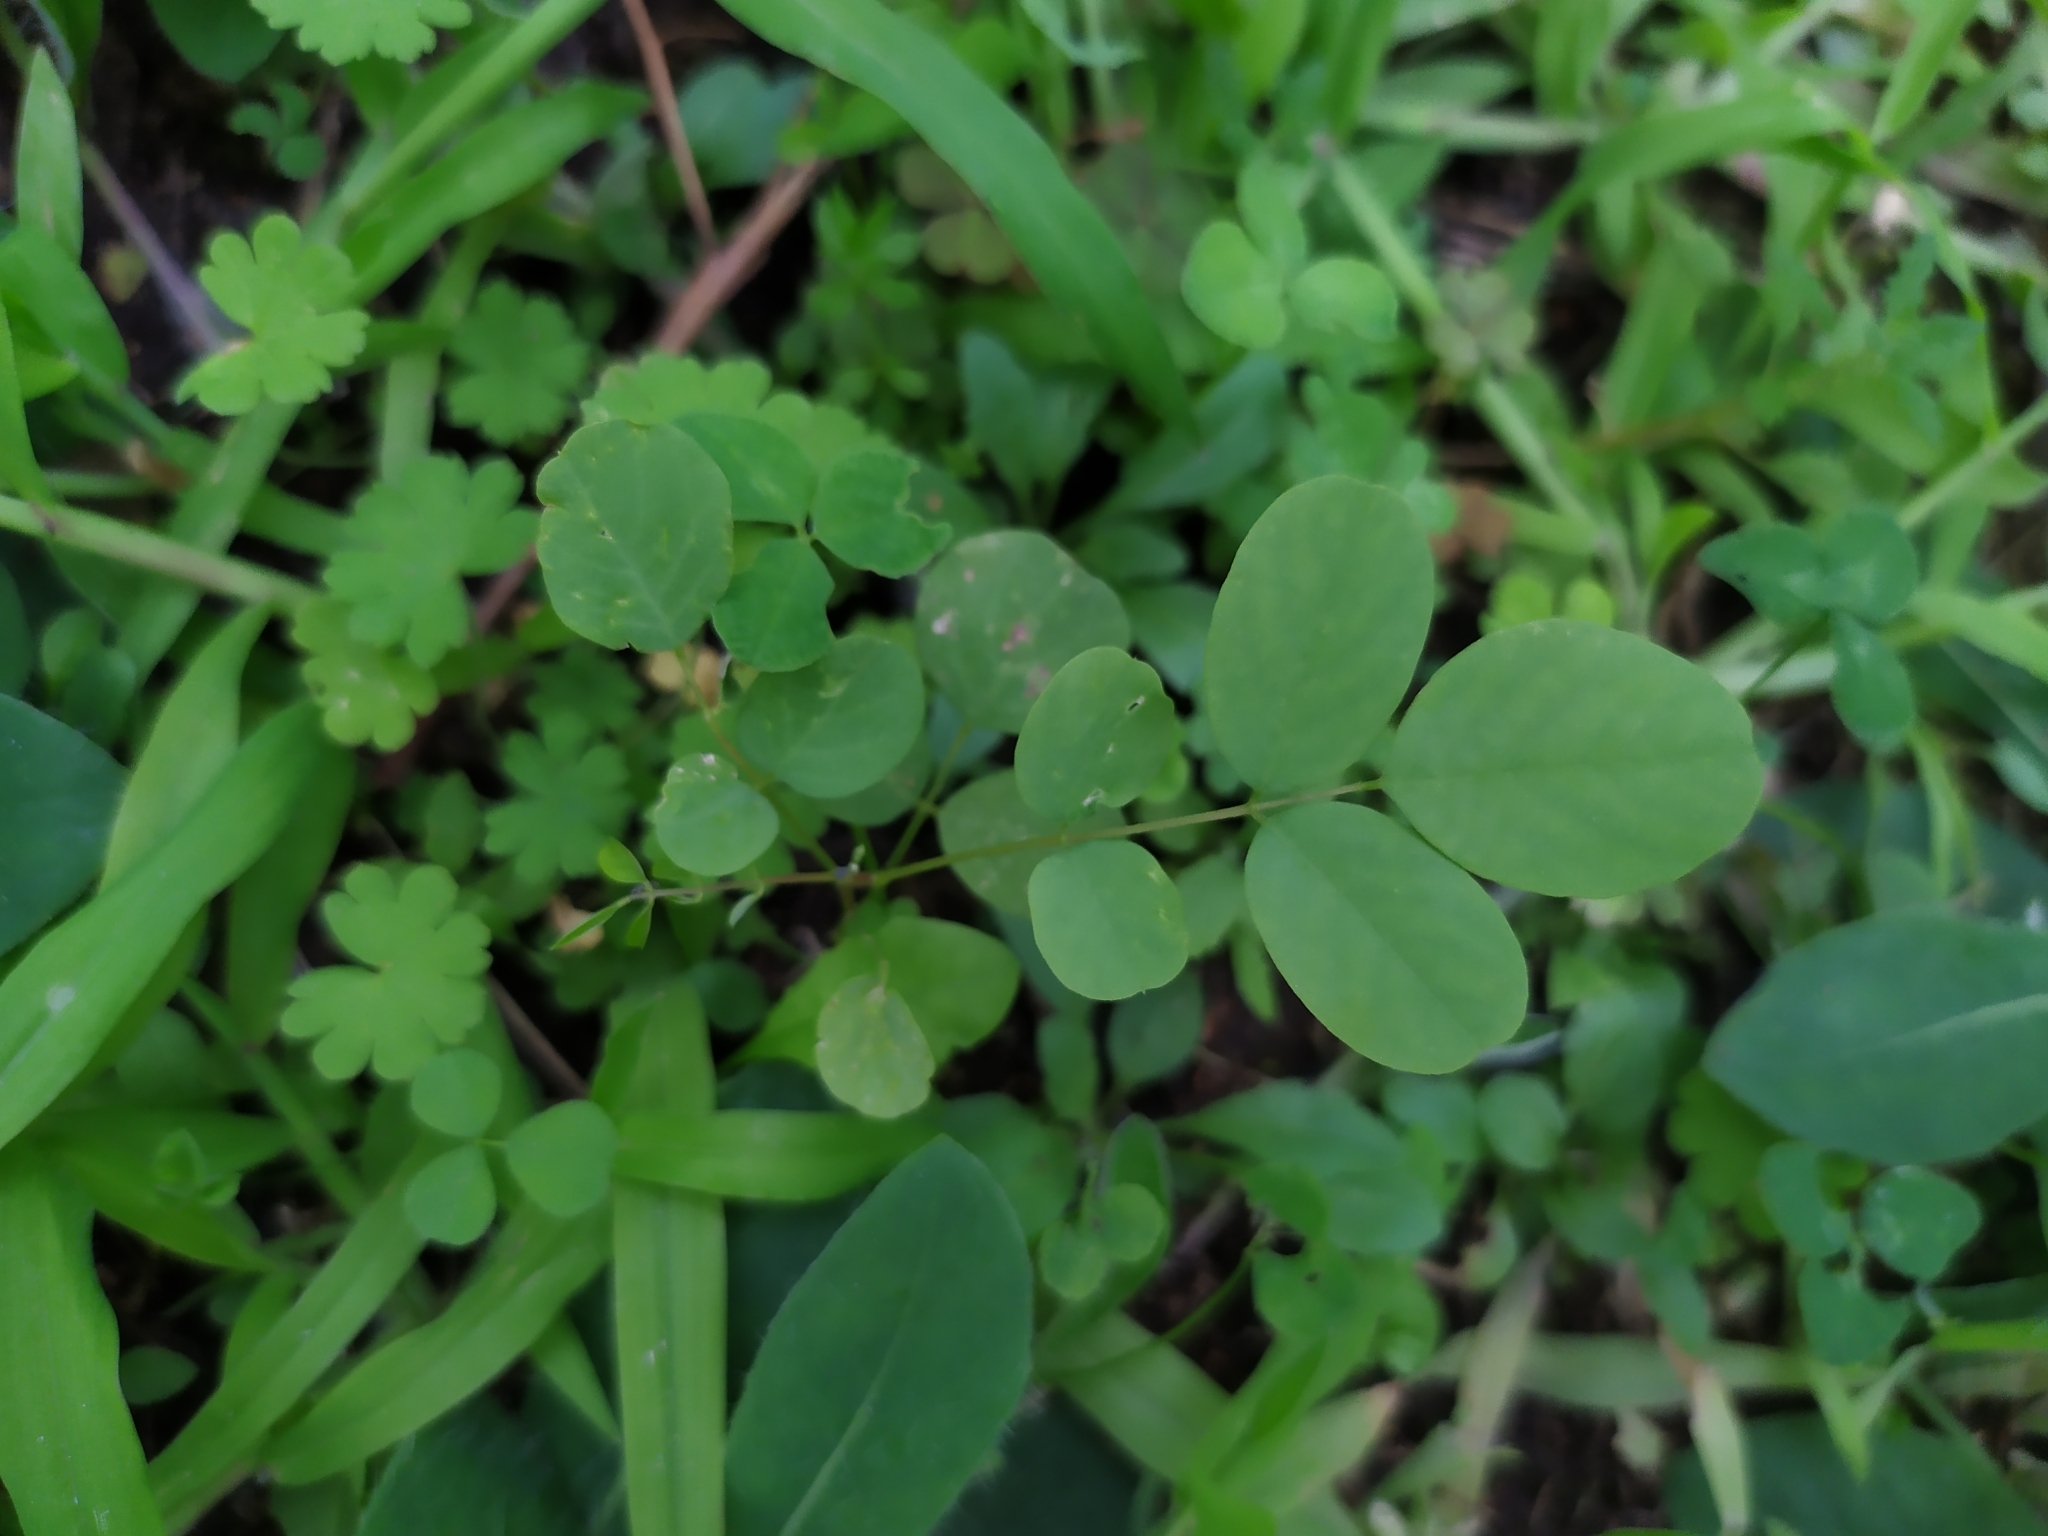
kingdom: Plantae
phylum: Tracheophyta
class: Magnoliopsida
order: Fabales
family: Fabaceae
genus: Robinia
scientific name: Robinia pseudoacacia
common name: Black locust
